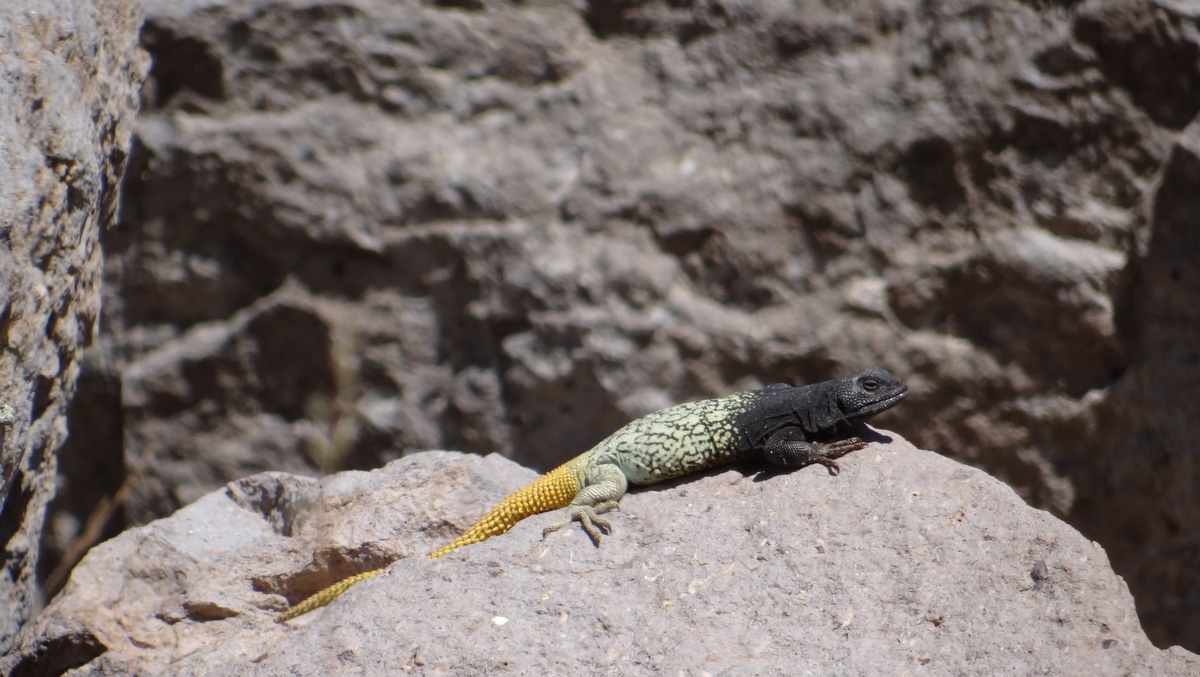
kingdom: Animalia
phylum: Chordata
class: Squamata
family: Liolaemidae
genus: Phymaturus
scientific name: Phymaturus verdugo
